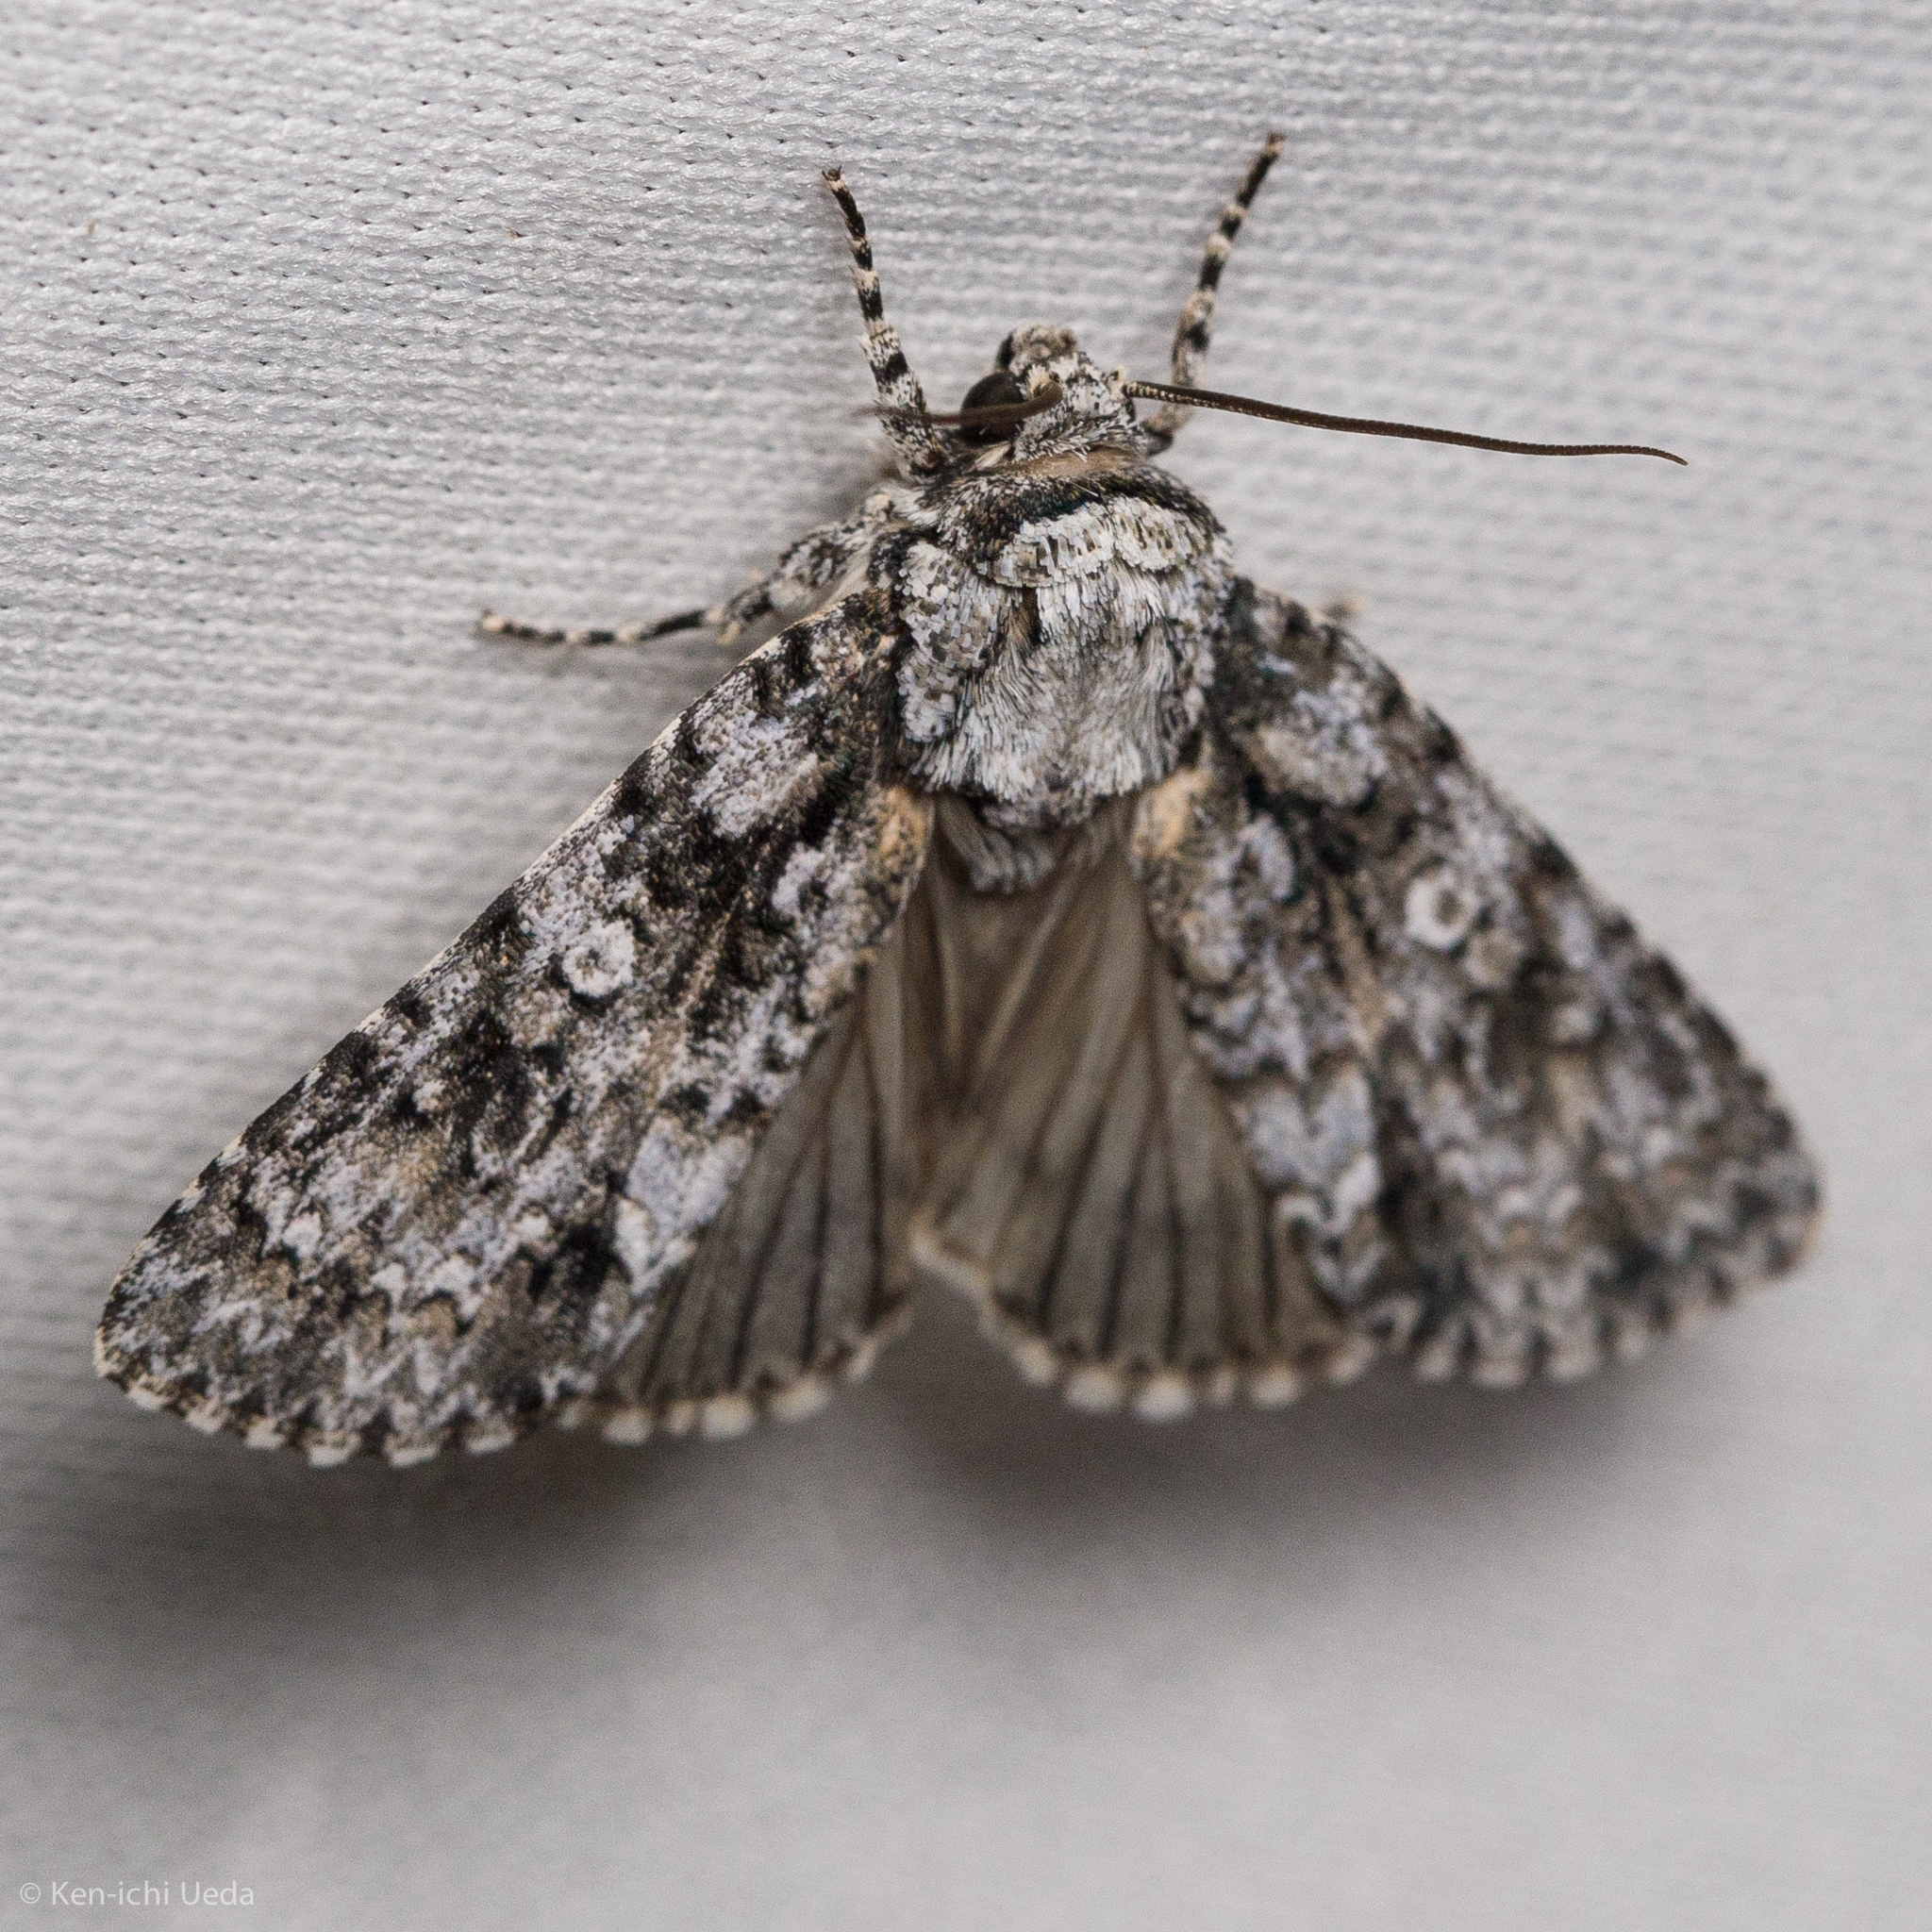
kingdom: Animalia
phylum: Arthropoda
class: Insecta
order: Lepidoptera
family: Noctuidae
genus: Acronicta
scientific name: Acronicta marmorata
